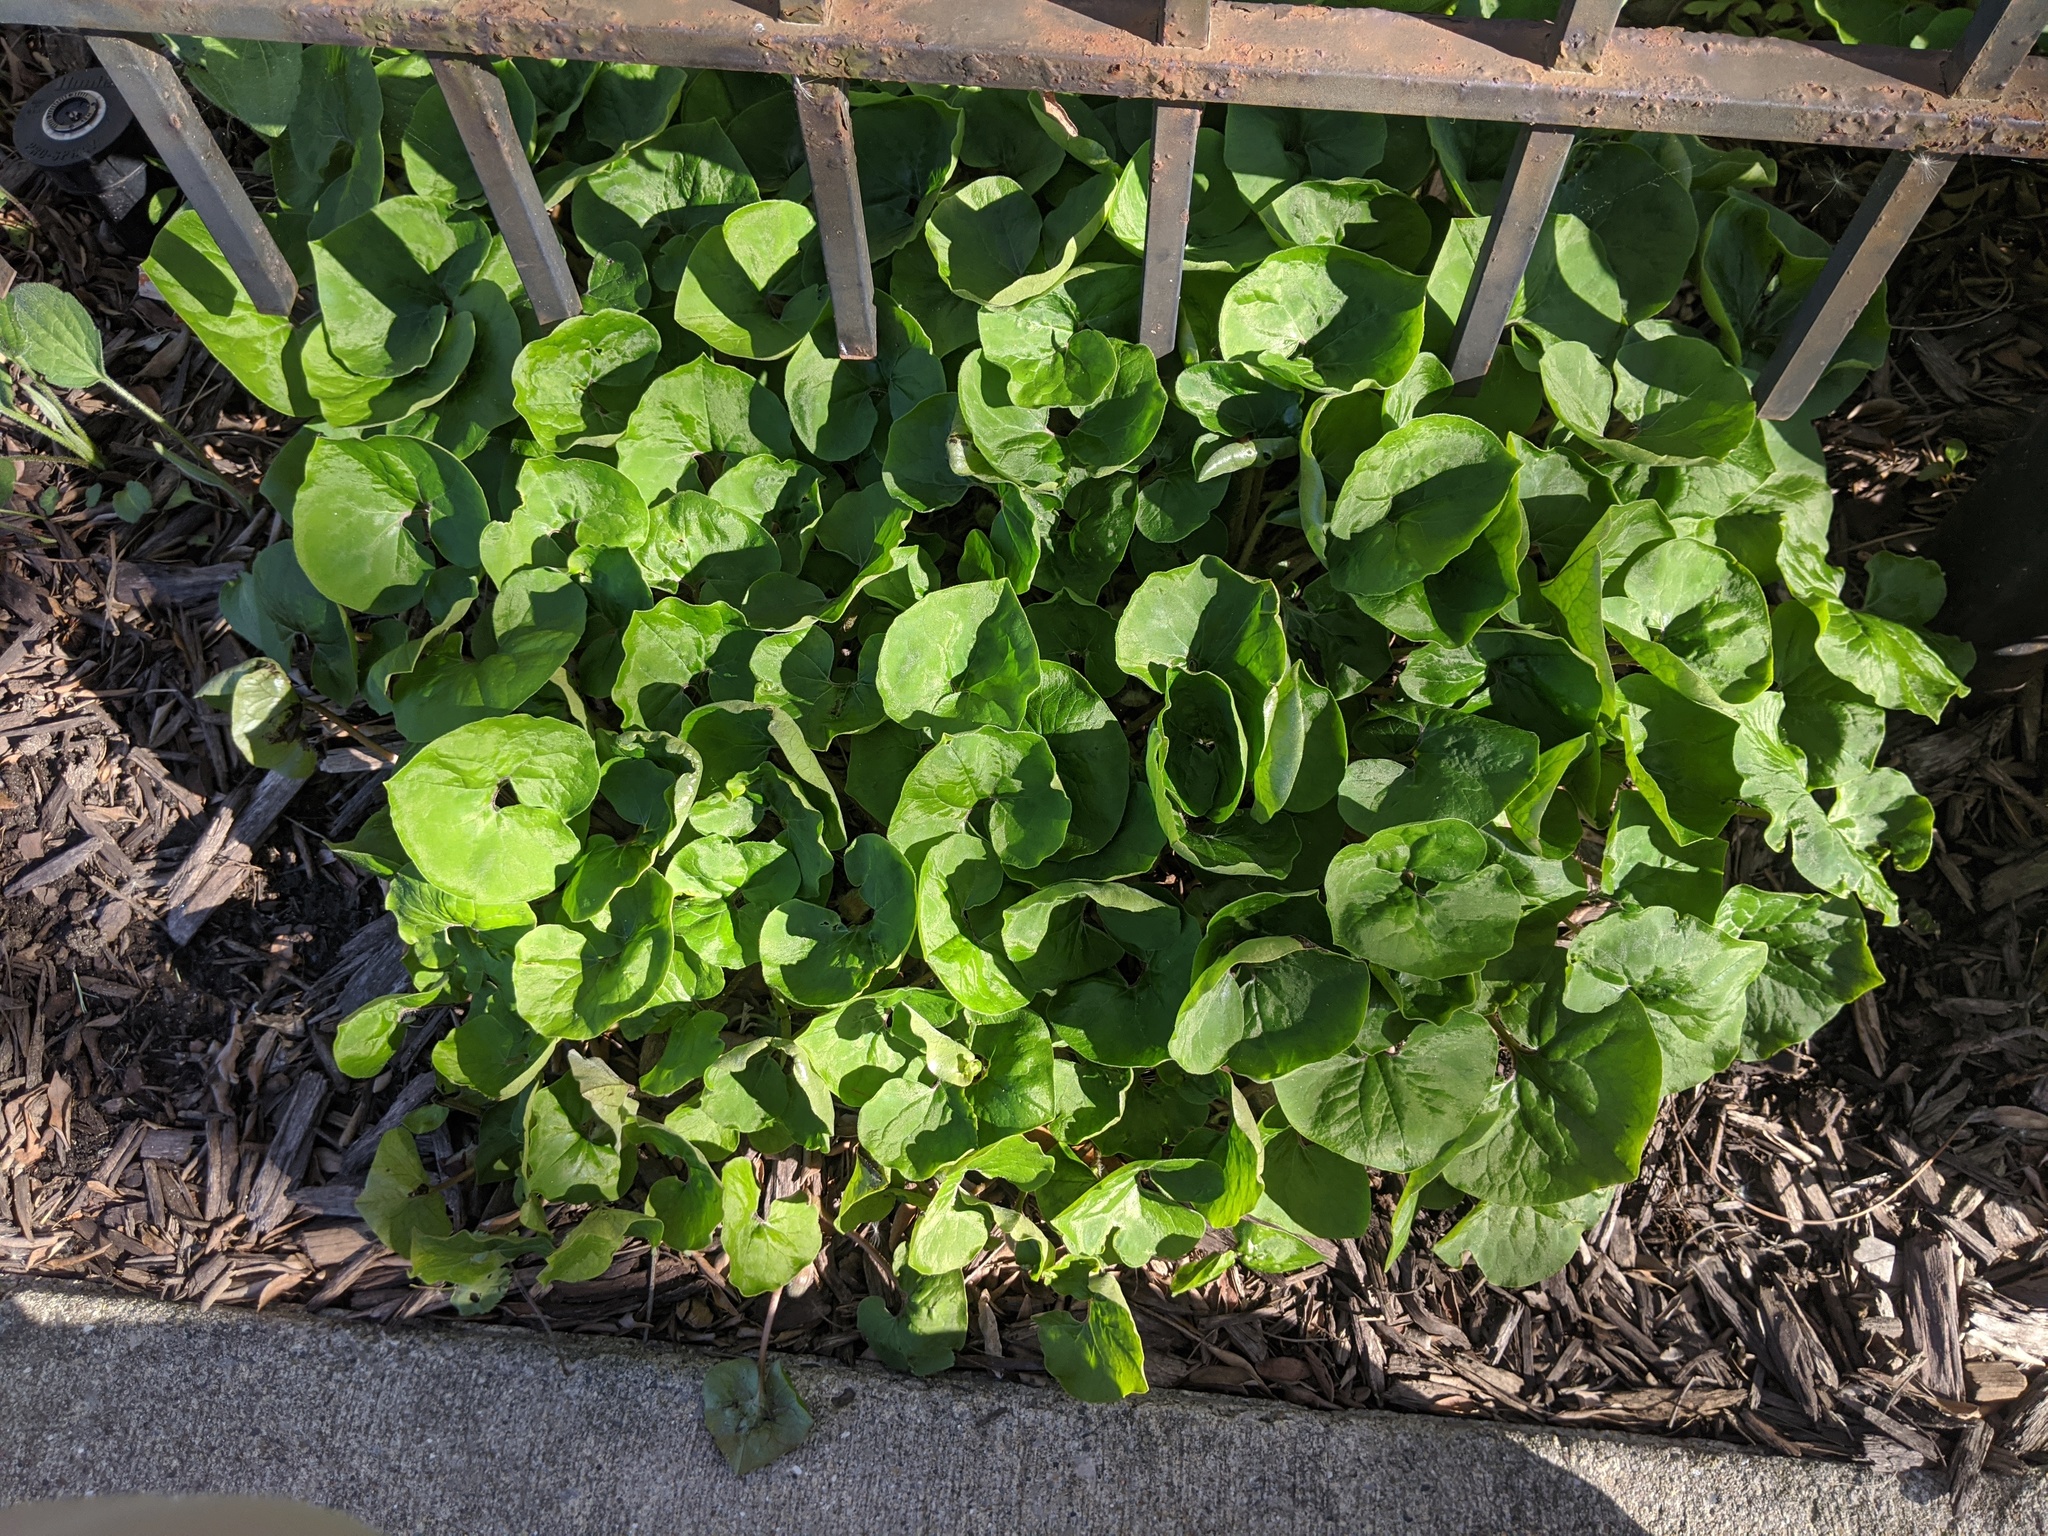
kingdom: Plantae
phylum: Tracheophyta
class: Magnoliopsida
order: Piperales
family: Aristolochiaceae
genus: Asarum
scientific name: Asarum canadense
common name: Wild ginger
